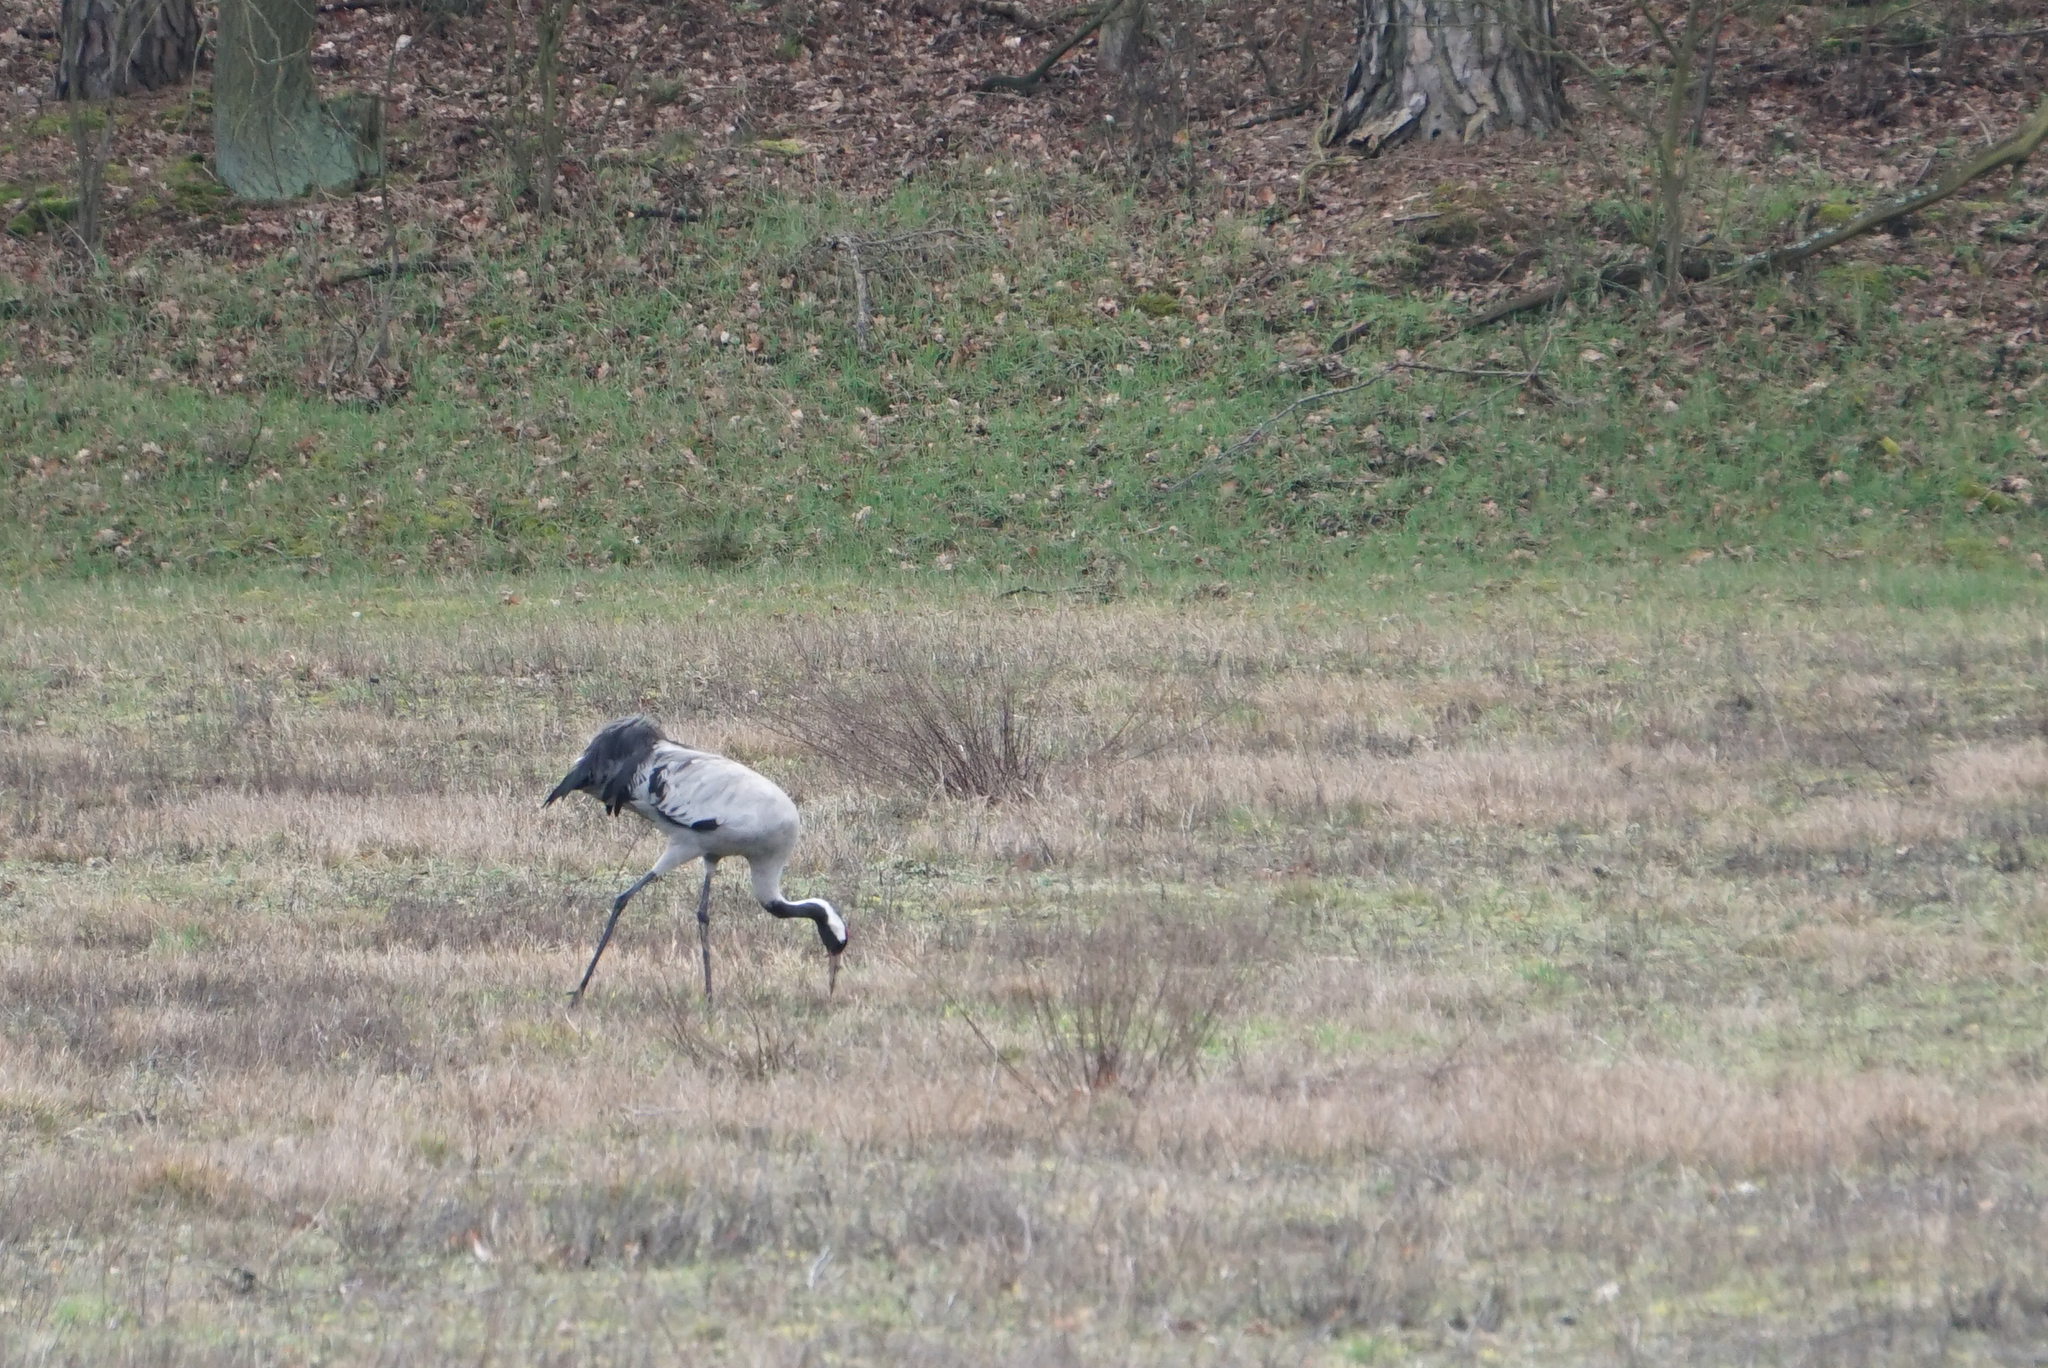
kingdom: Animalia
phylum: Chordata
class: Aves
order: Gruiformes
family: Gruidae
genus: Grus
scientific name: Grus grus
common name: Common crane
